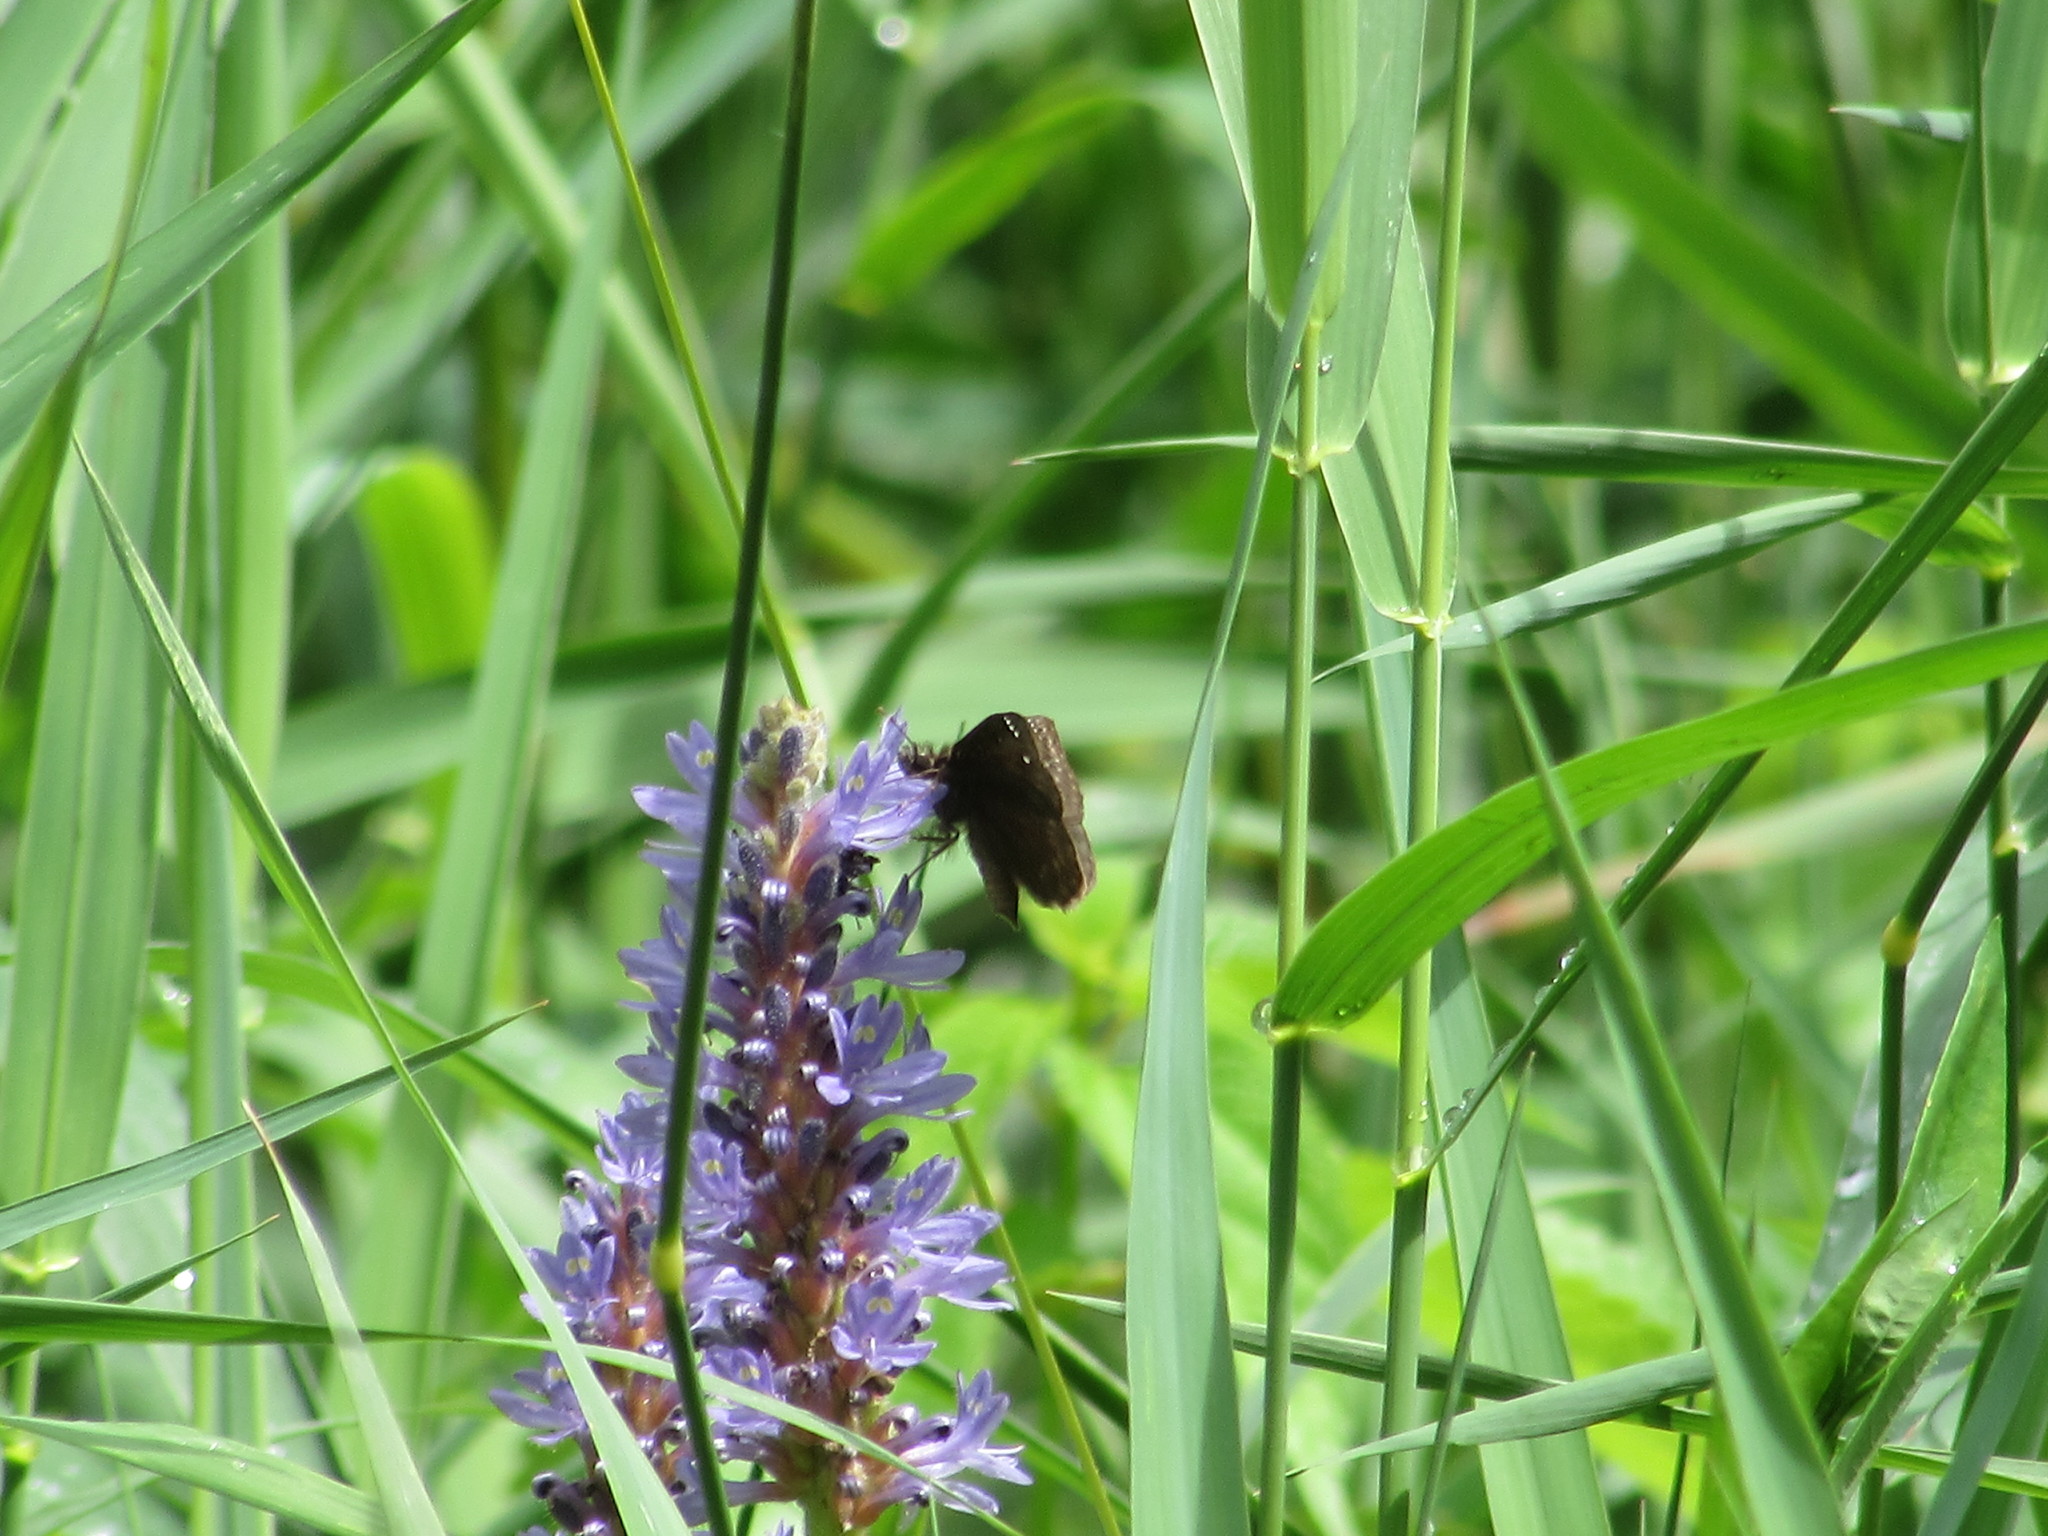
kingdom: Animalia
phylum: Arthropoda
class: Insecta
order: Lepidoptera
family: Hesperiidae
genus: Pholisora
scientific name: Pholisora catullus
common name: Common sootywing
